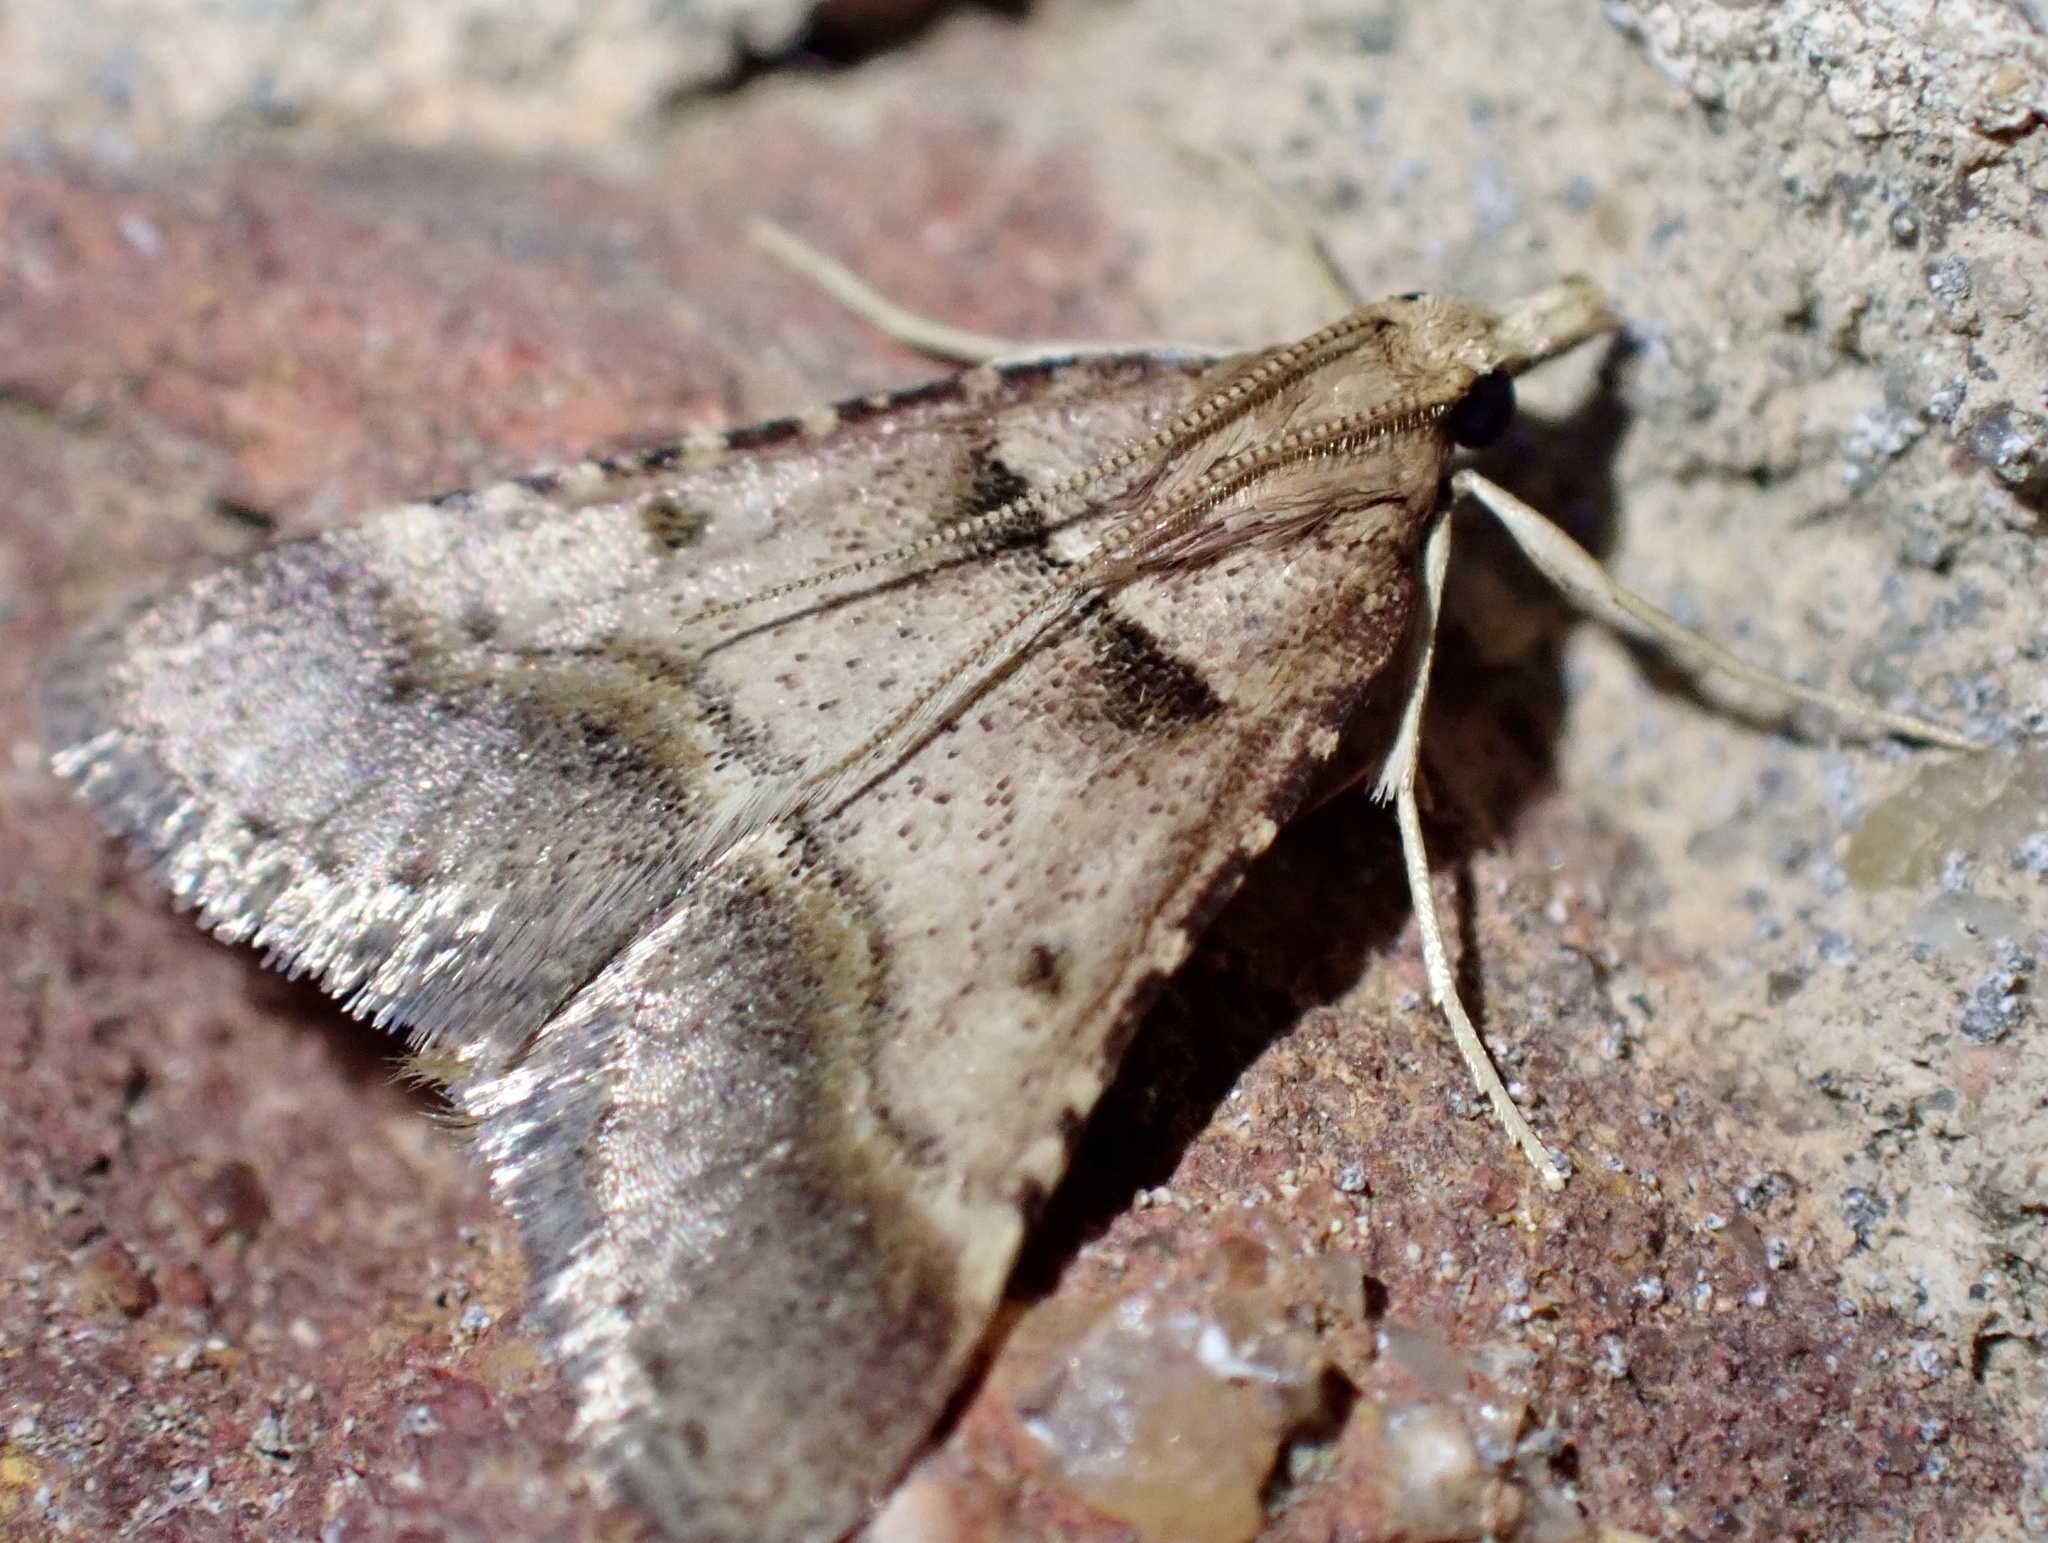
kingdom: Animalia
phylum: Arthropoda
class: Insecta
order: Lepidoptera
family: Pyralidae
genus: Stemmatophora
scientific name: Stemmatophora brunnealis
